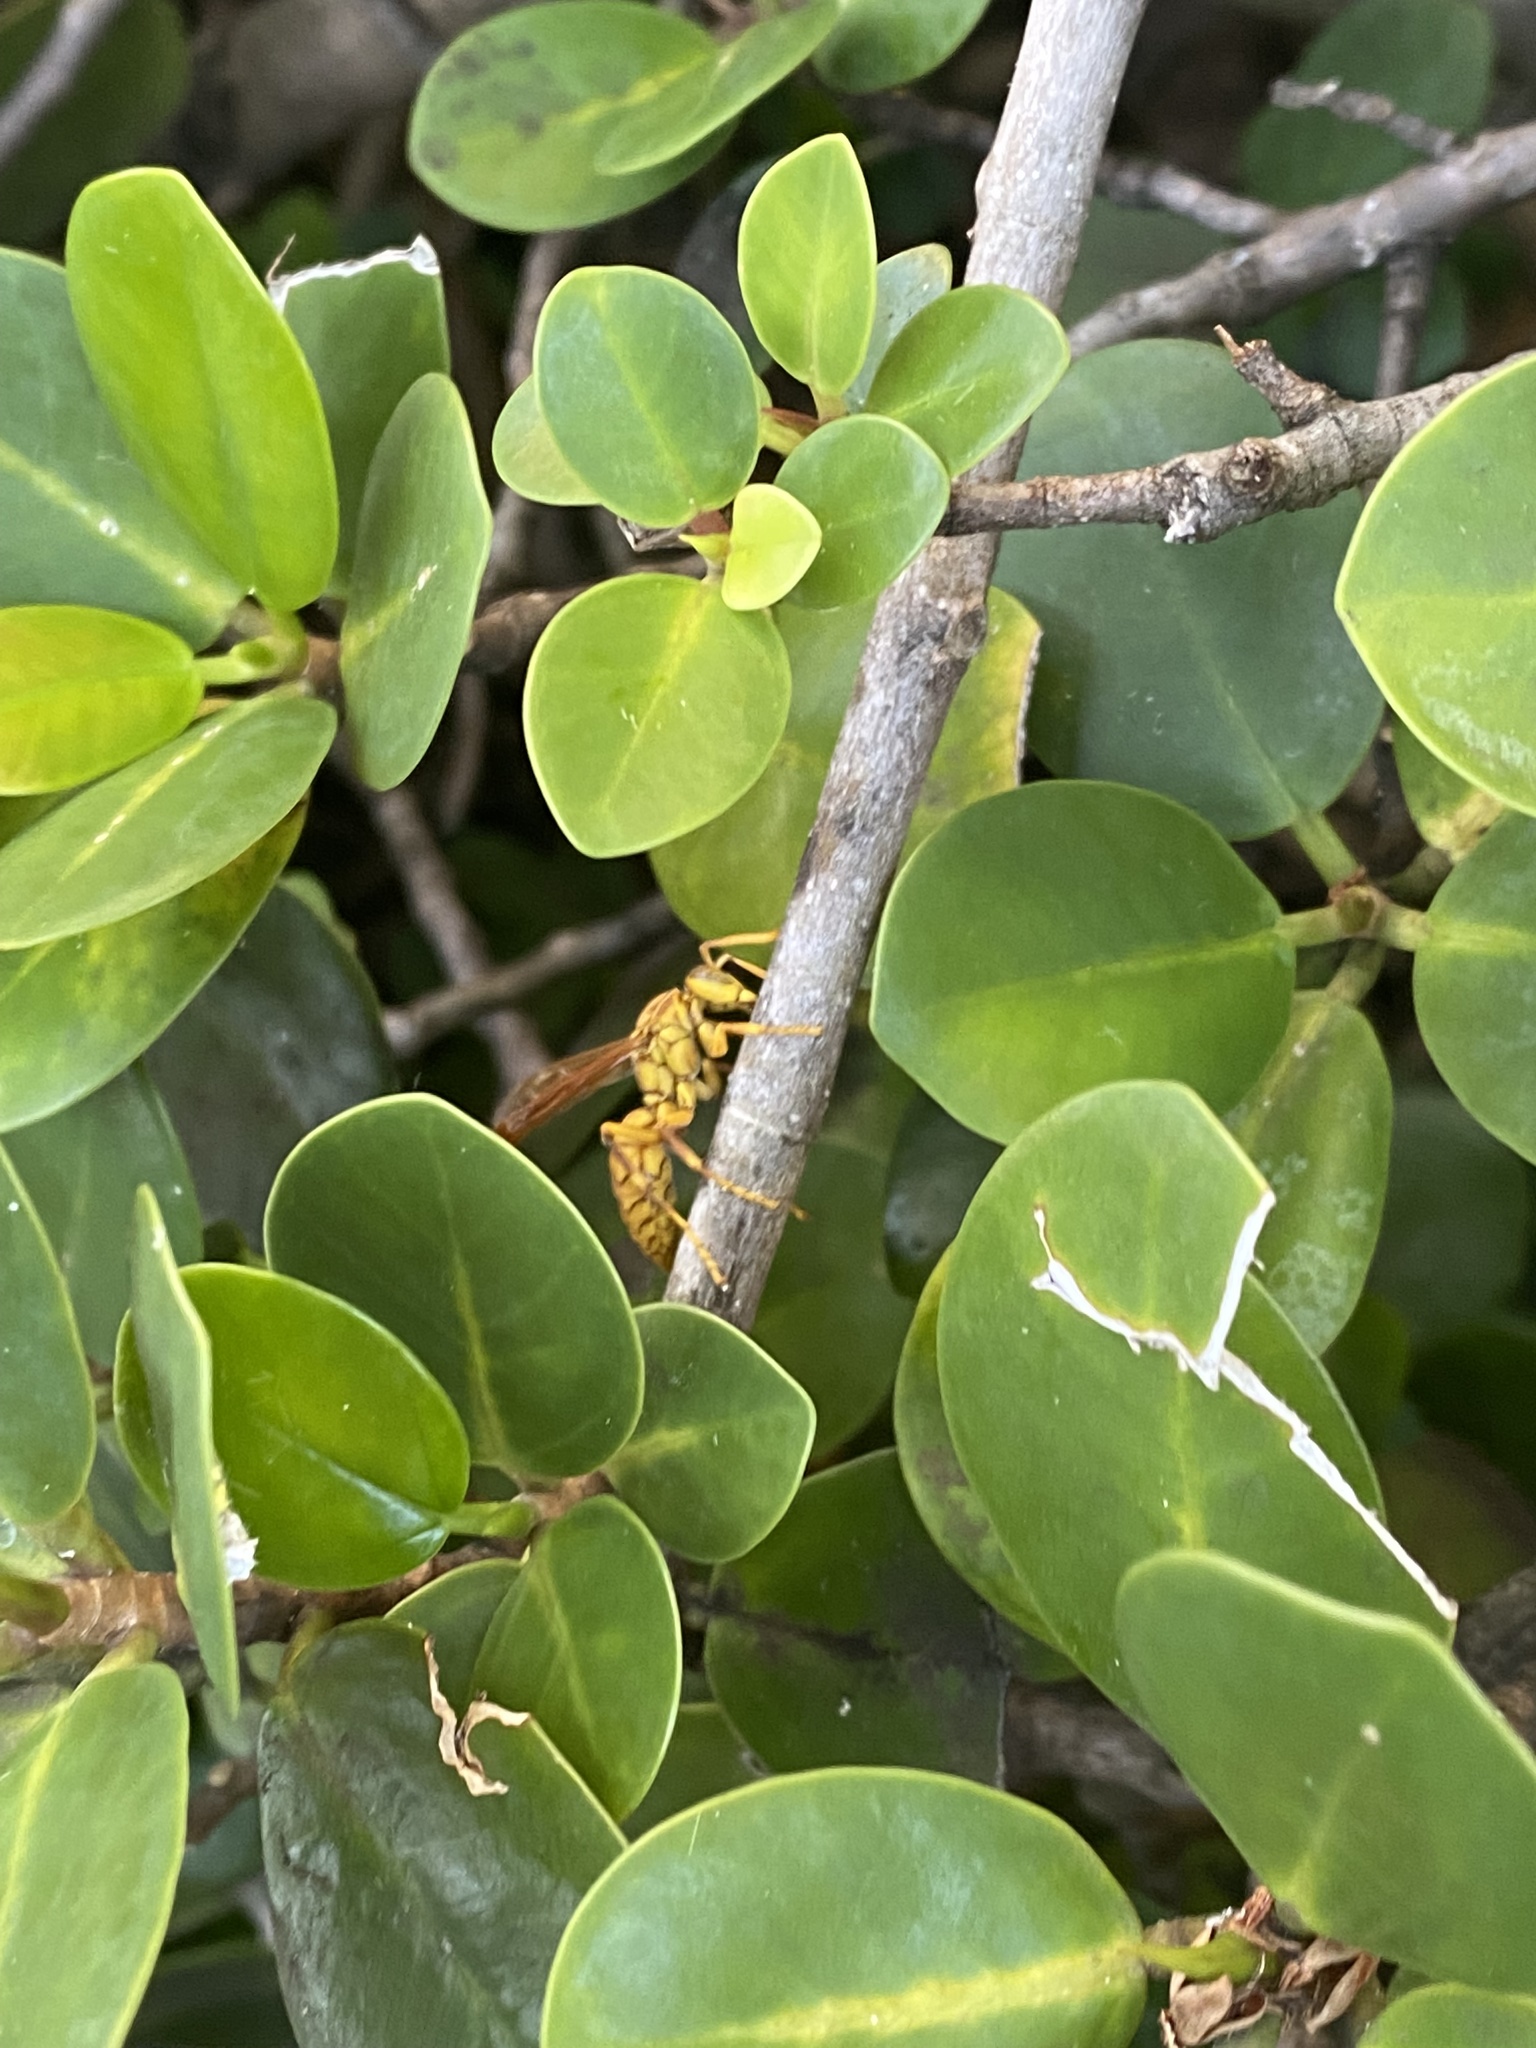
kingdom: Animalia
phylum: Arthropoda
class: Insecta
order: Hymenoptera
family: Eumenidae
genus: Polistes
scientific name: Polistes olivaceus
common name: Paper wasp
